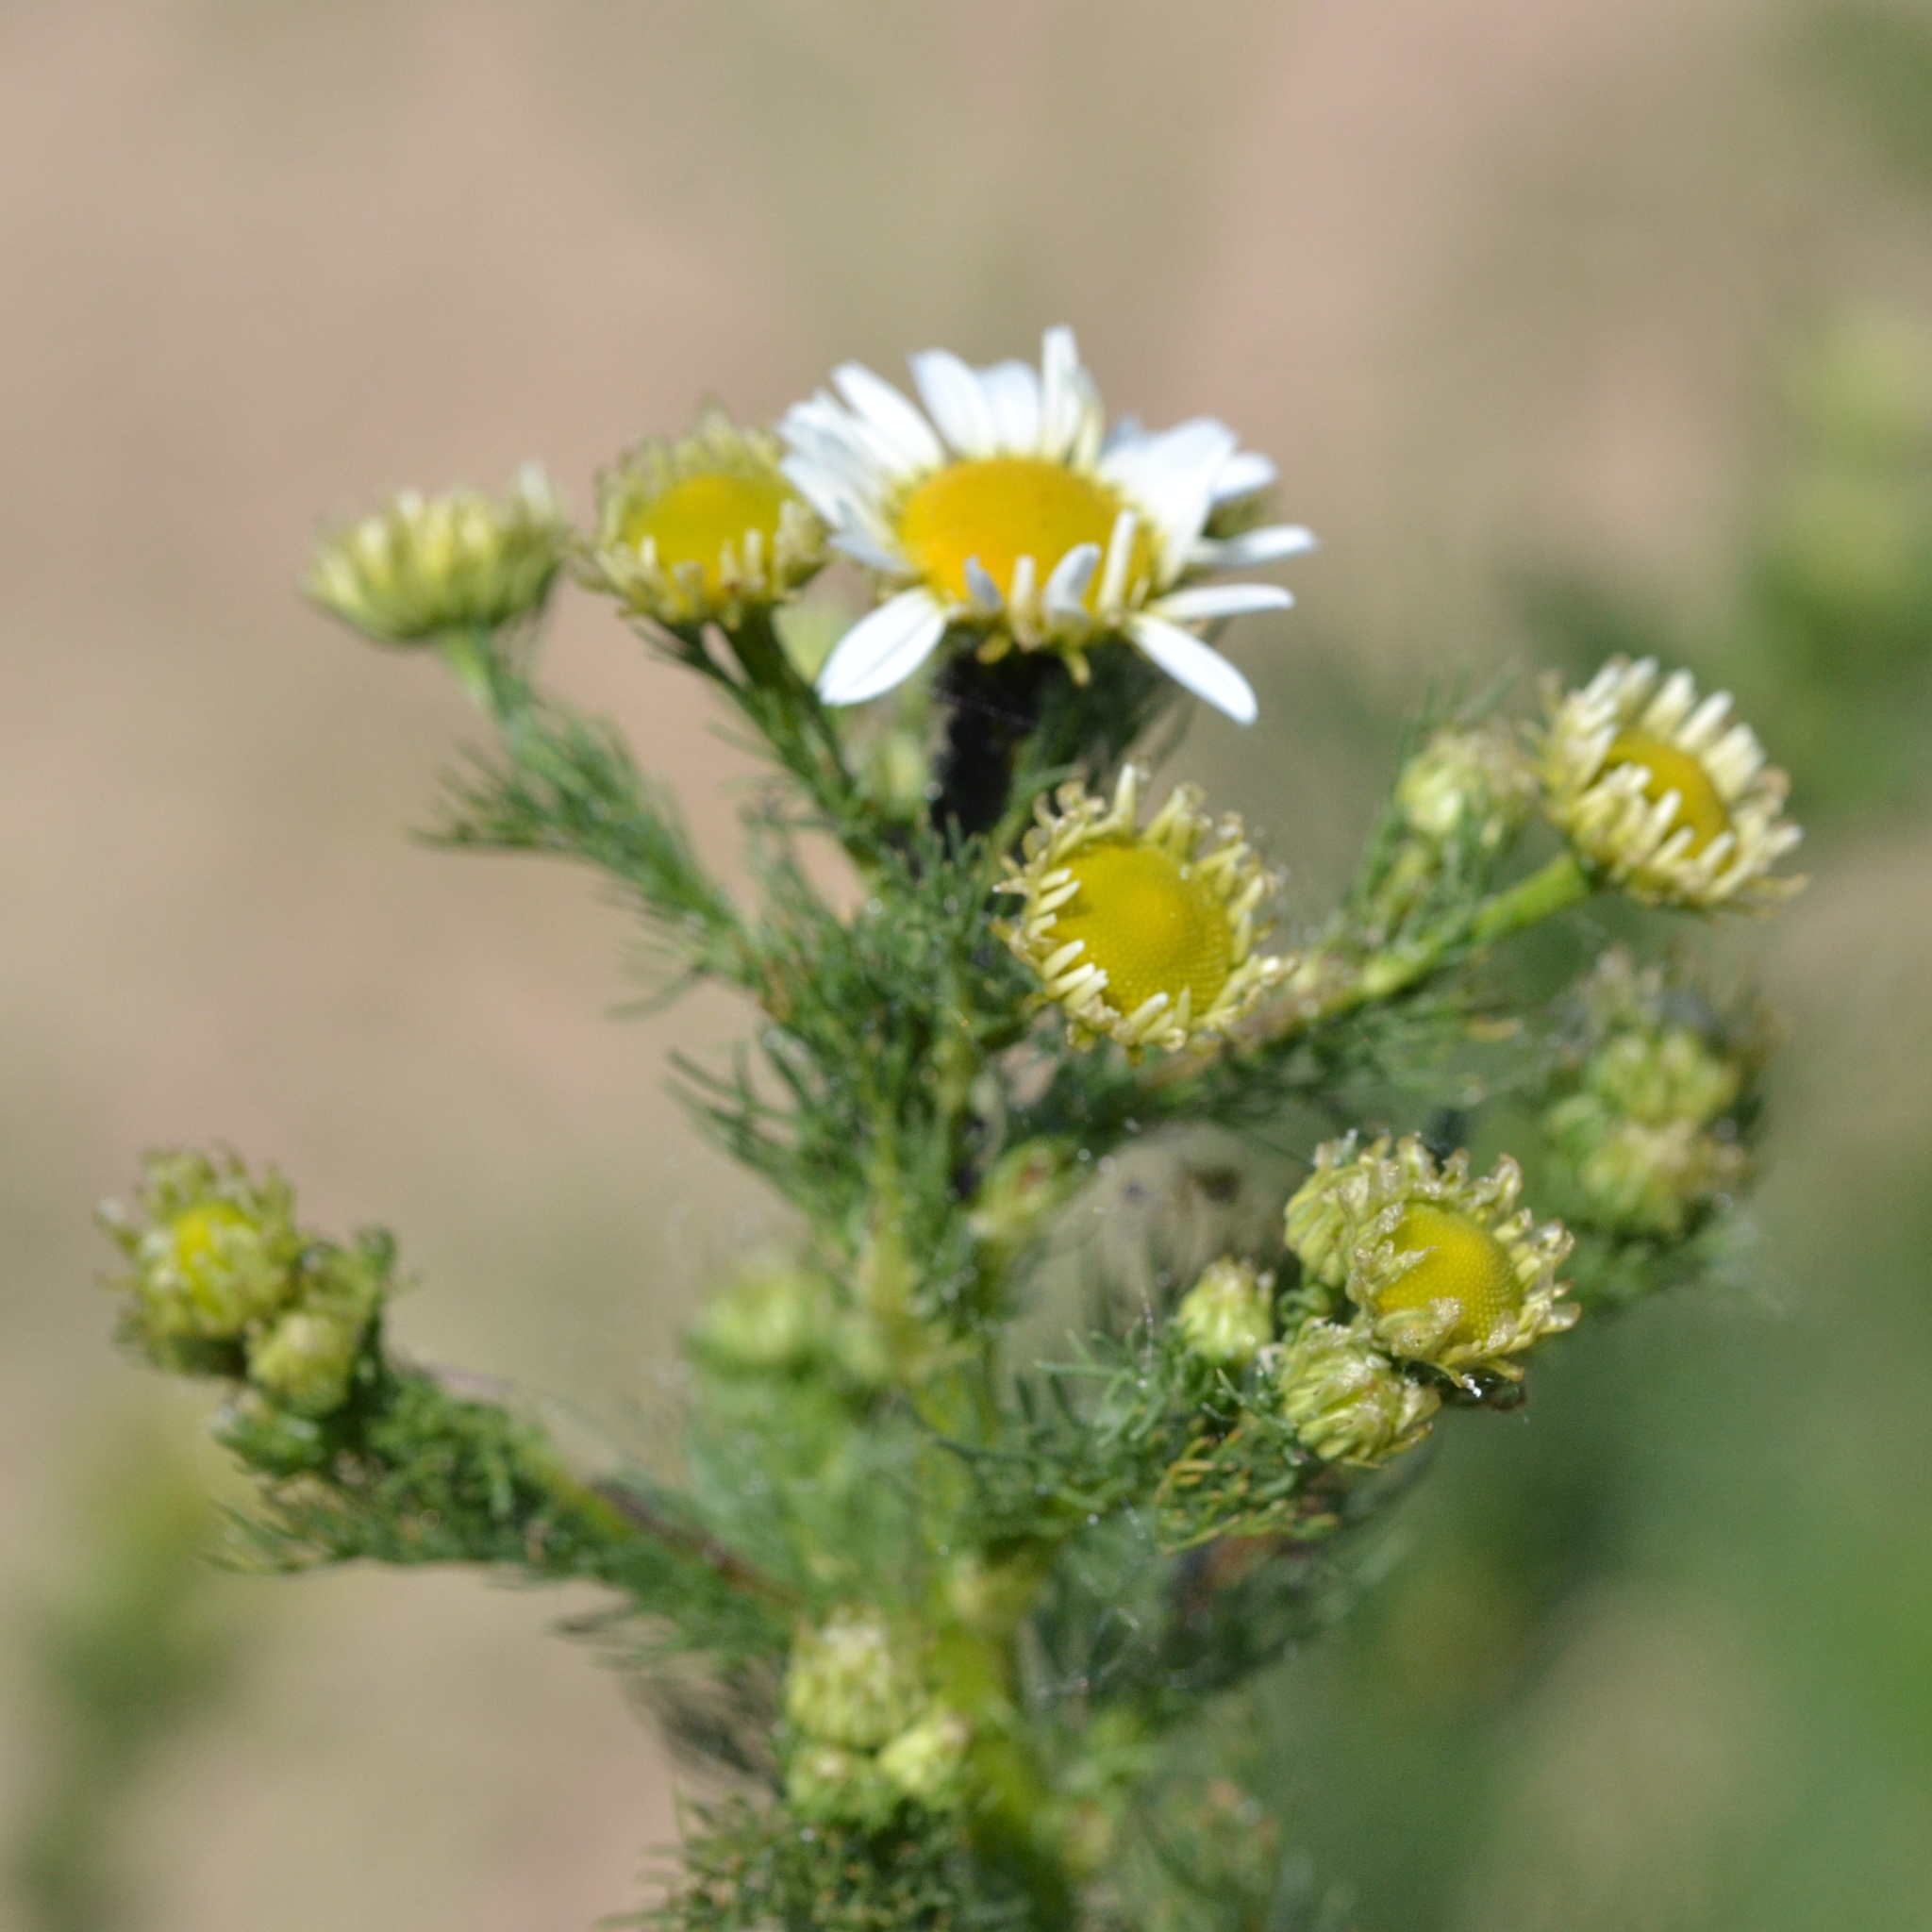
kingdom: Plantae
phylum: Tracheophyta
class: Magnoliopsida
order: Asterales
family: Asteraceae
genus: Tripleurospermum
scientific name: Tripleurospermum inodorum
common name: Scentless mayweed
